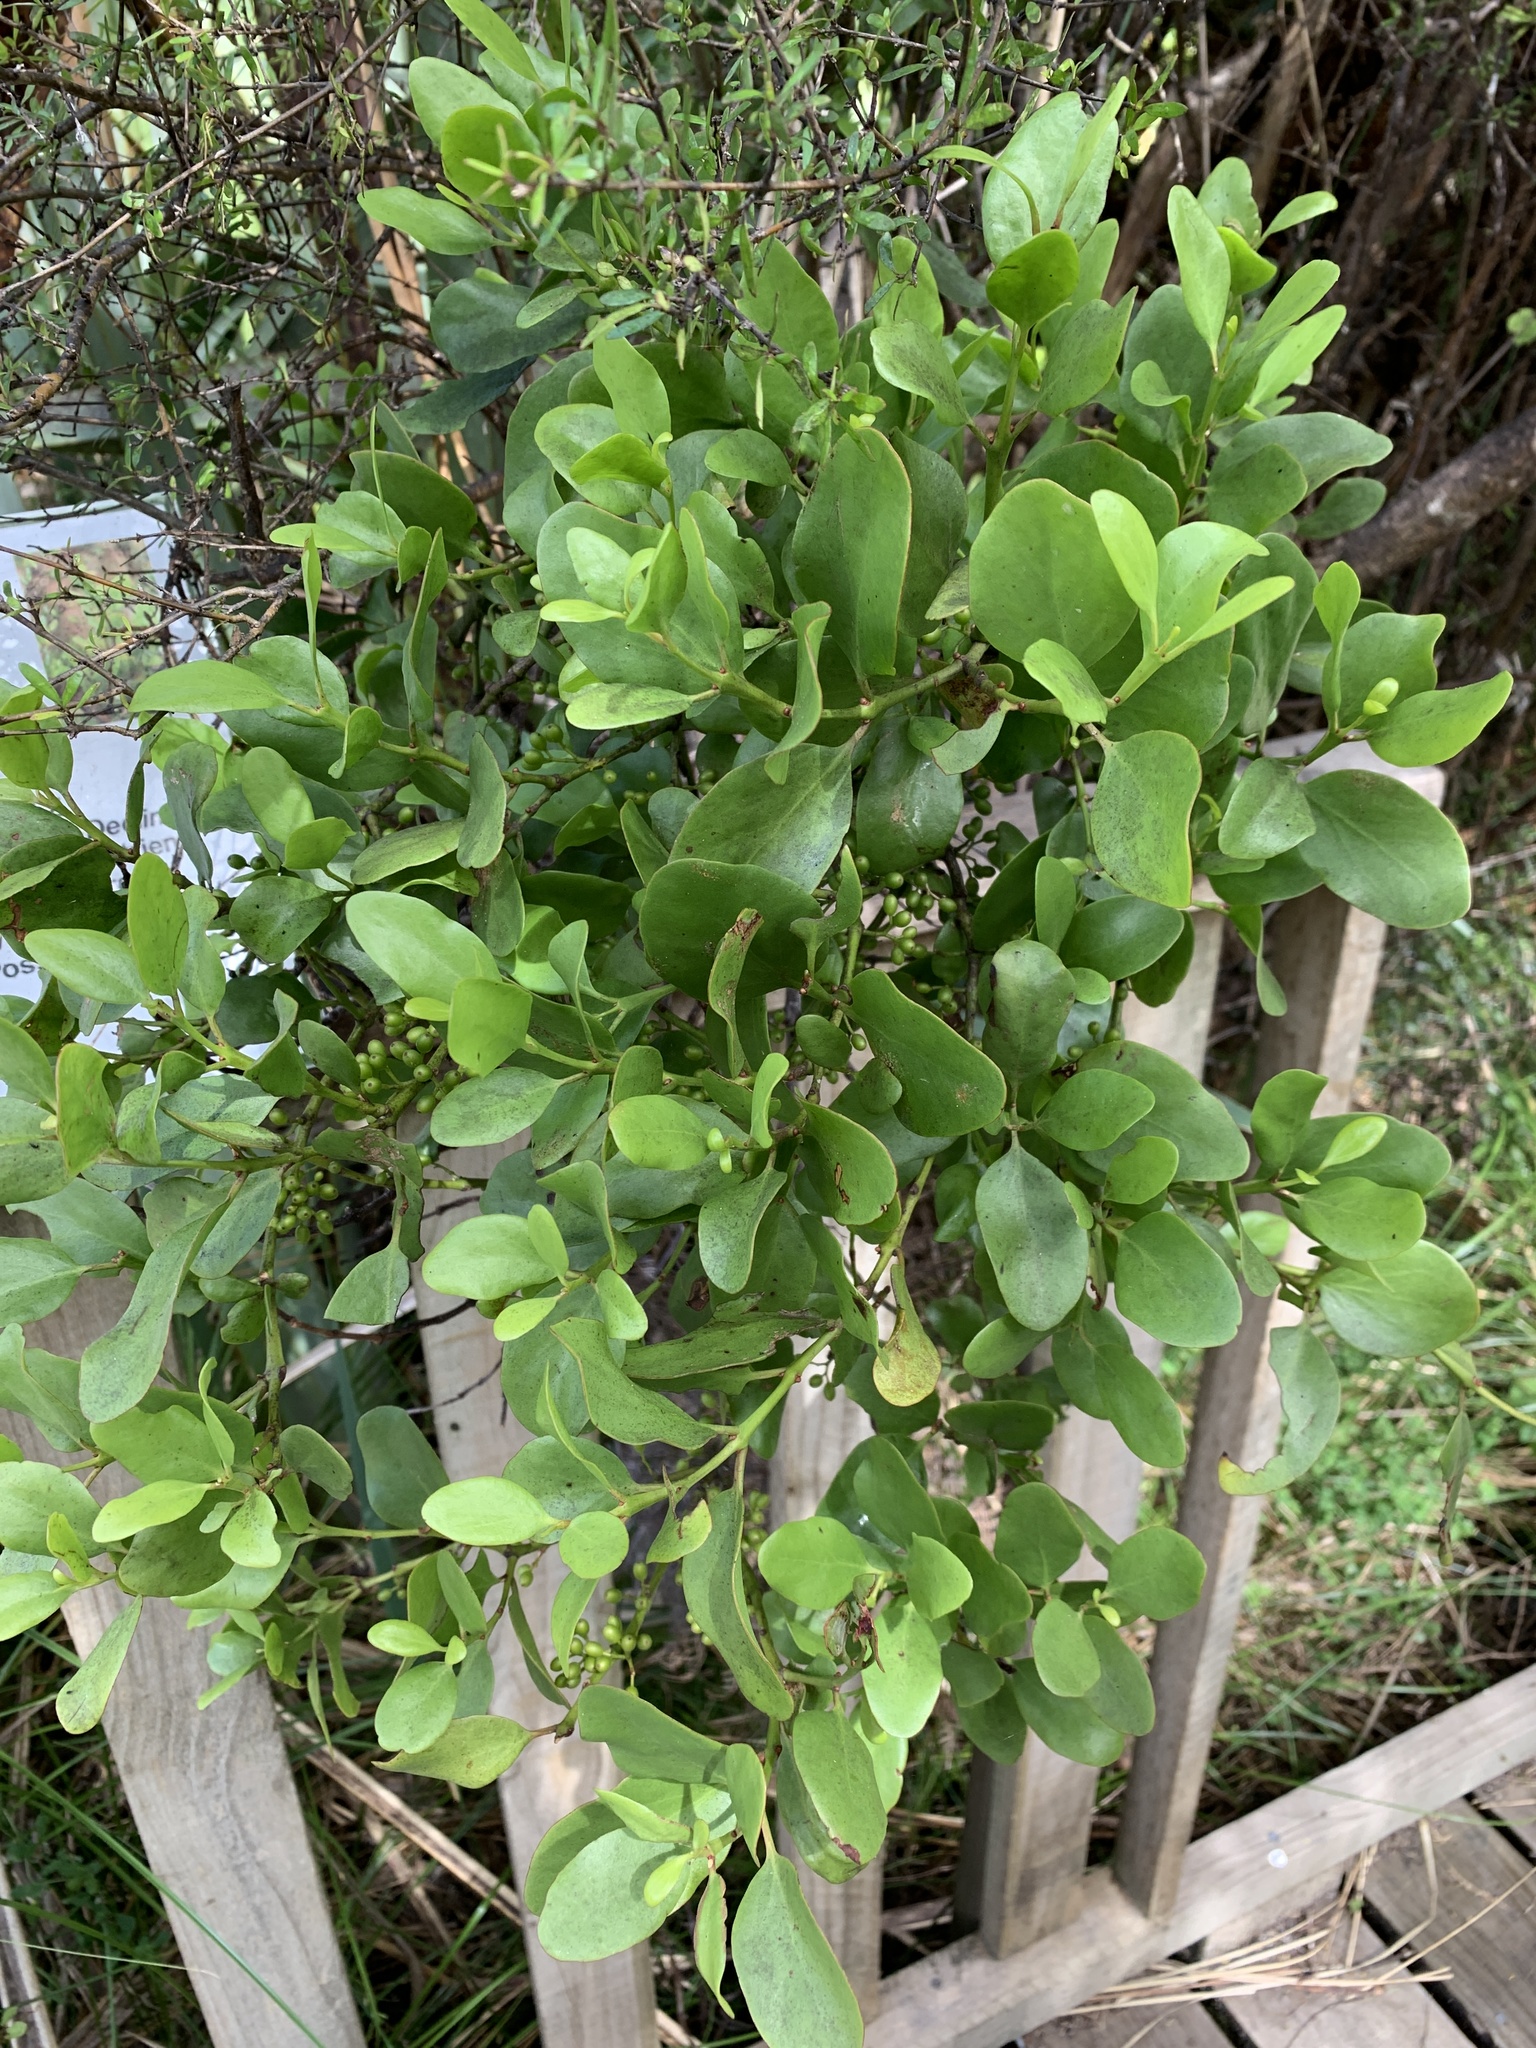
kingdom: Plantae
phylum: Tracheophyta
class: Magnoliopsida
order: Santalales
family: Loranthaceae
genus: Ileostylus
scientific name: Ileostylus micranthus
